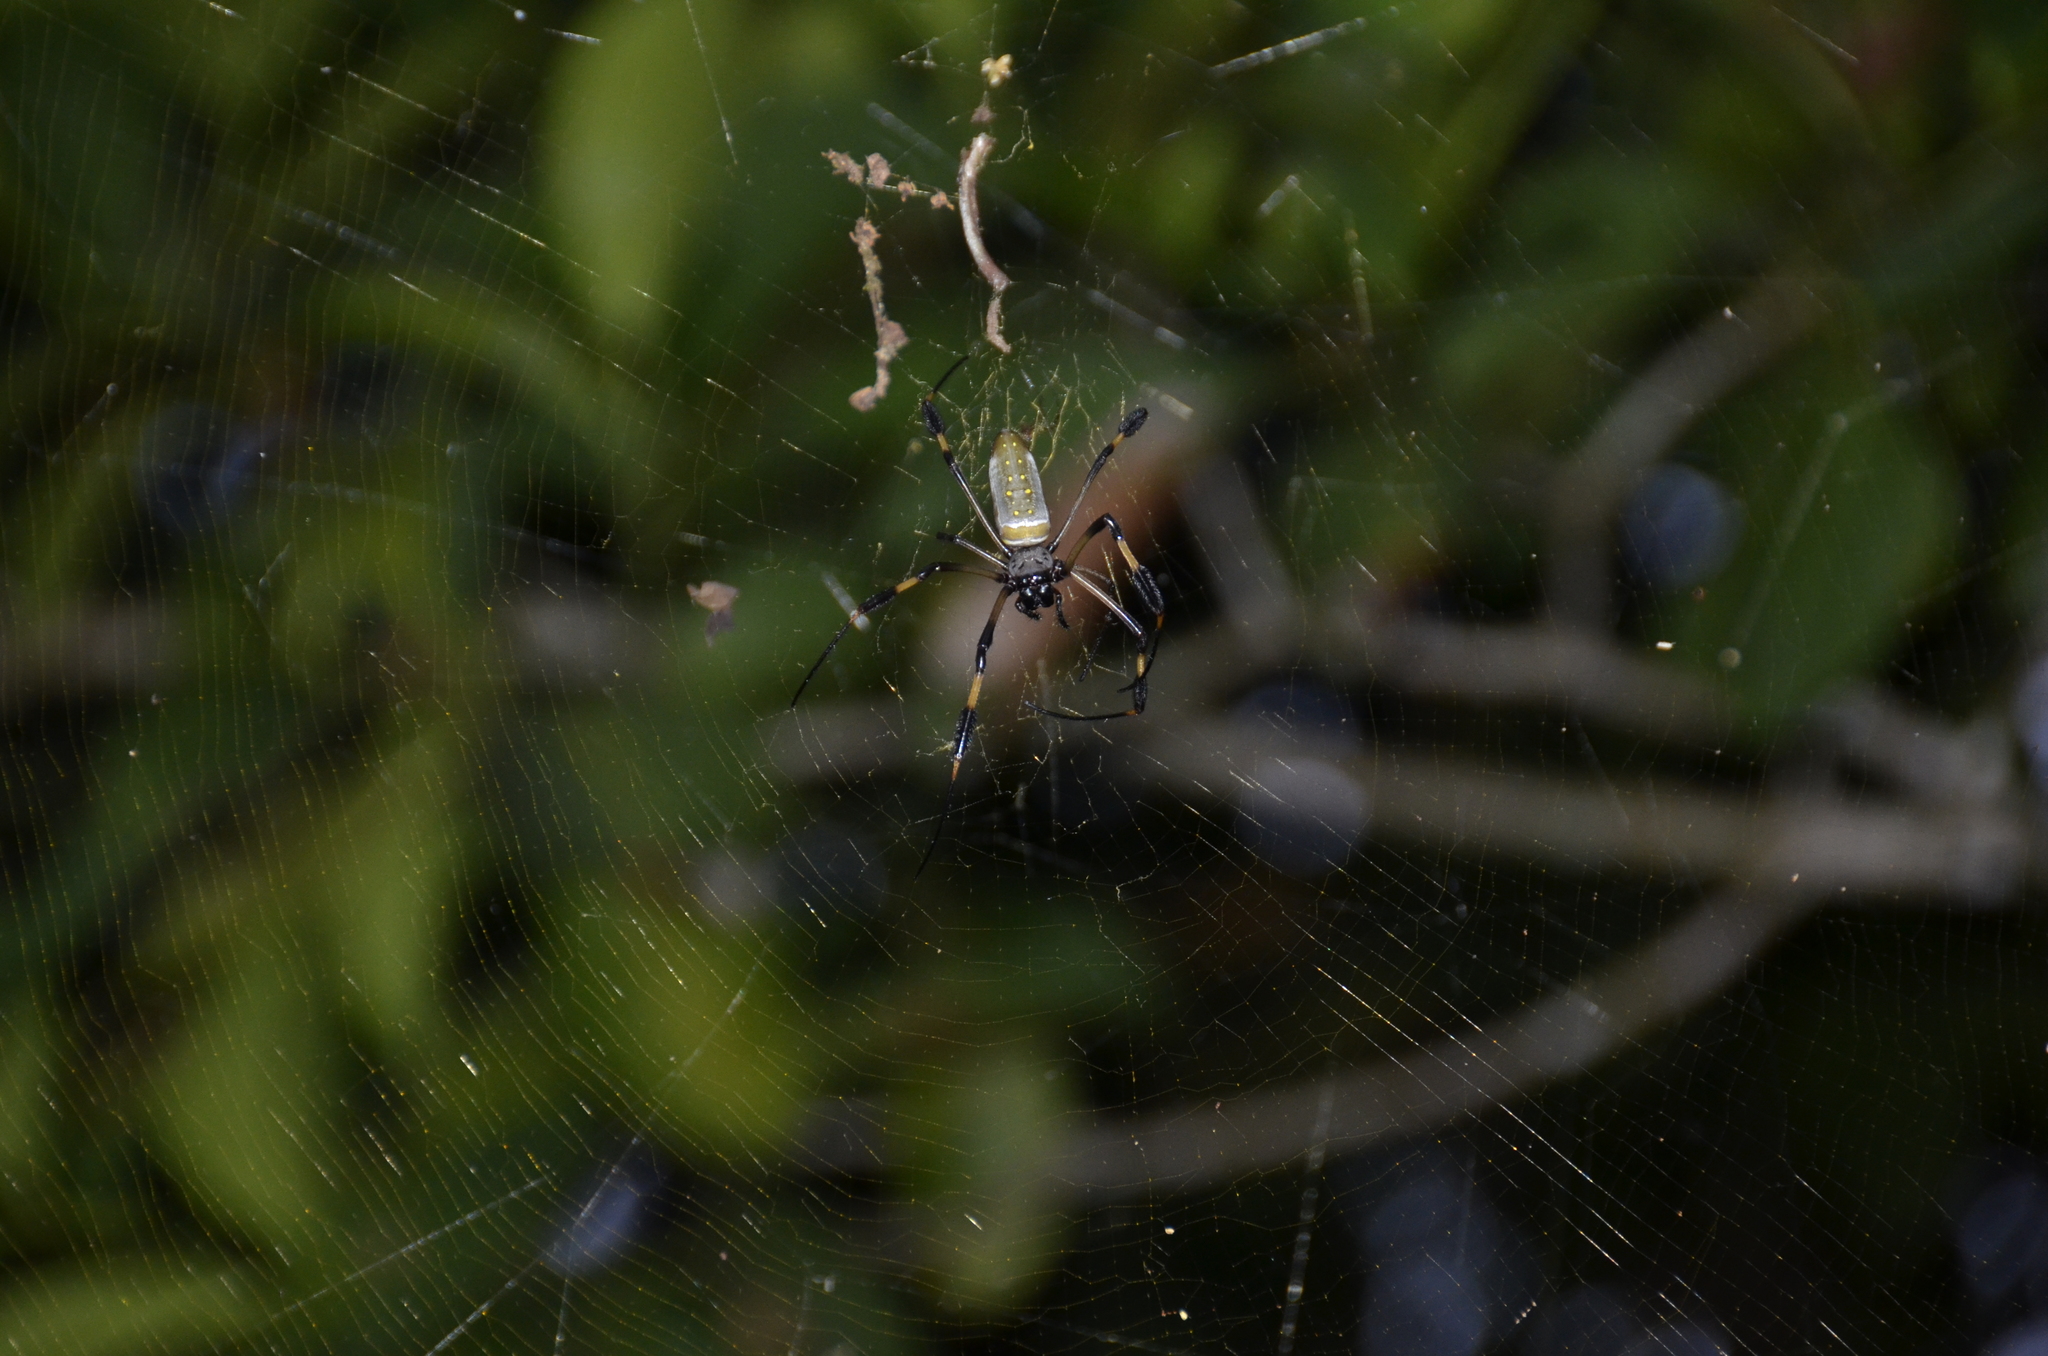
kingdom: Animalia
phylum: Arthropoda
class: Arachnida
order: Araneae
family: Araneidae
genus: Trichonephila
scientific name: Trichonephila clavipes
